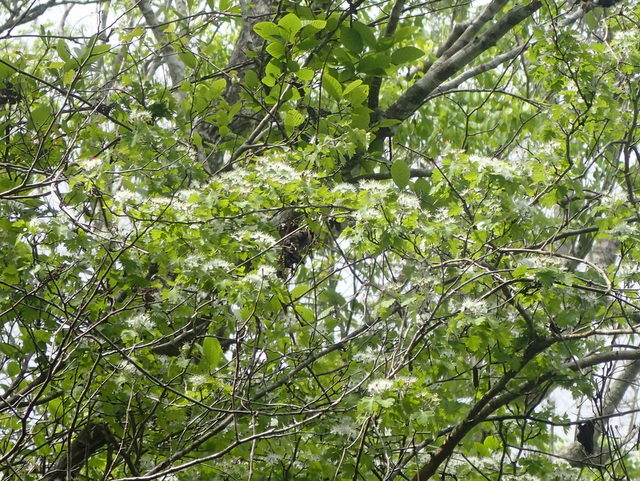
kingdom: Plantae
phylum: Tracheophyta
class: Magnoliopsida
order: Rosales
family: Rosaceae
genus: Crataegus
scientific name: Crataegus marshallii
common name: Parsley-hawthorn
